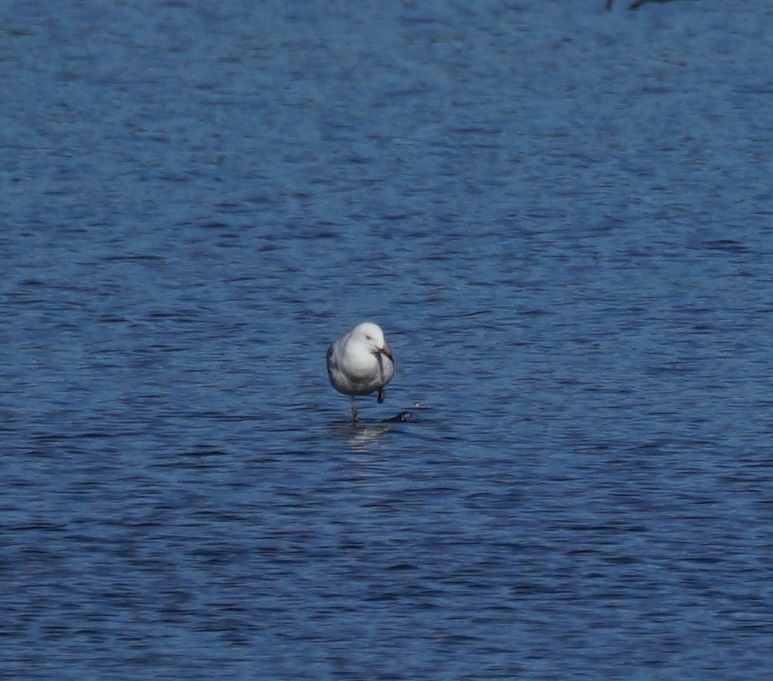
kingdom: Animalia
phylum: Chordata
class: Aves
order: Charadriiformes
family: Laridae
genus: Chroicocephalus
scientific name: Chroicocephalus novaehollandiae
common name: Silver gull
